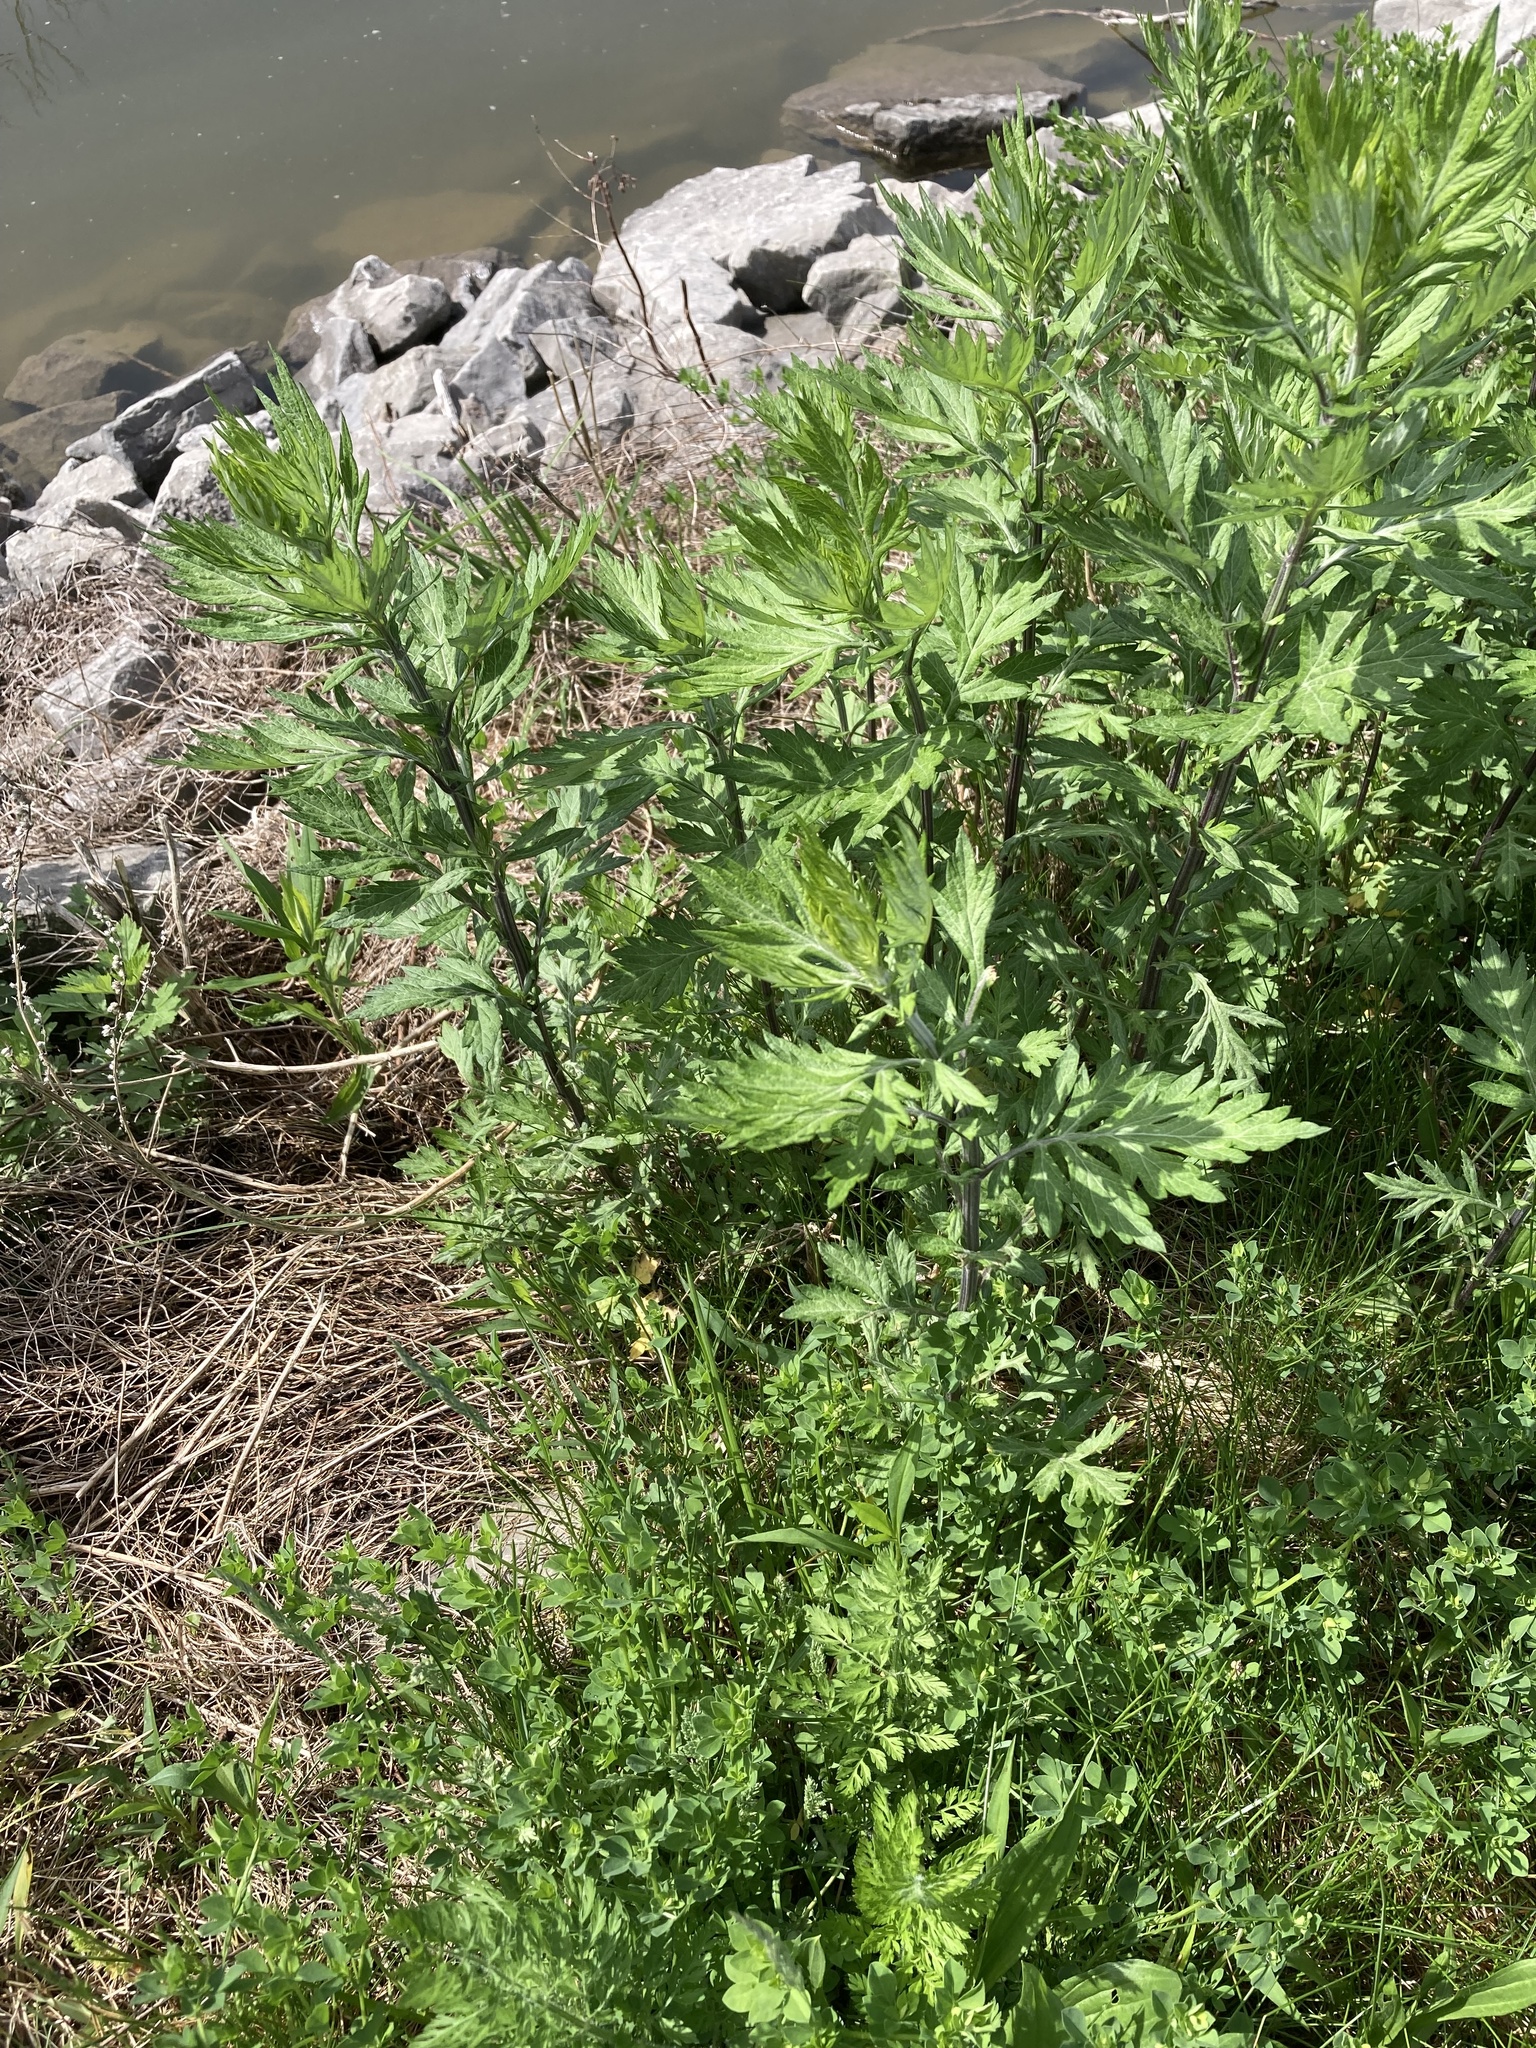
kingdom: Plantae
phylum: Tracheophyta
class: Magnoliopsida
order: Asterales
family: Asteraceae
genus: Artemisia
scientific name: Artemisia vulgaris
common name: Mugwort
